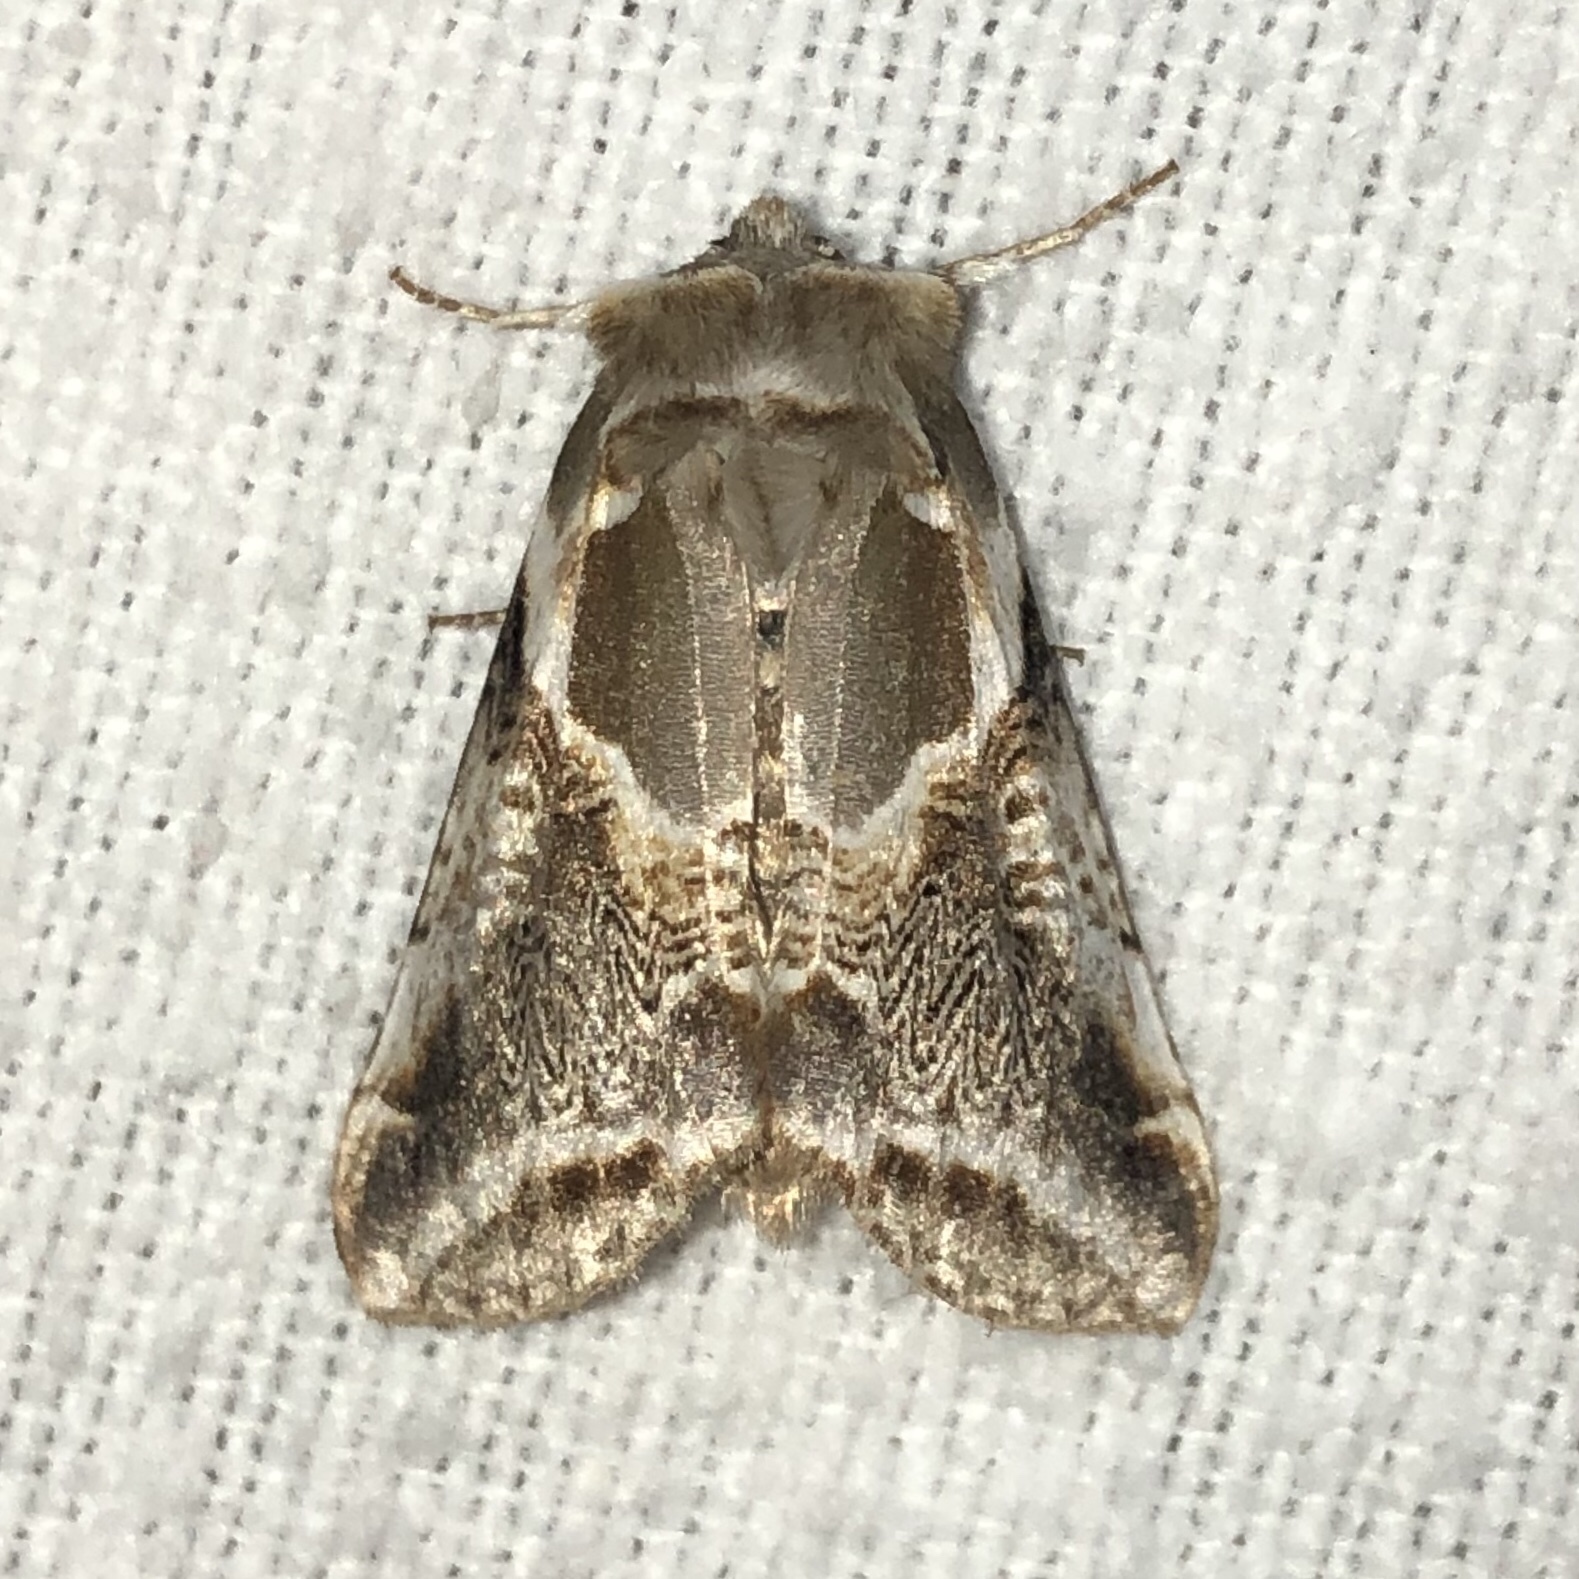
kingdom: Animalia
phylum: Arthropoda
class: Insecta
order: Lepidoptera
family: Drepanidae
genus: Habrosyne
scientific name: Habrosyne scripta
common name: Lettered habrosyne moth
